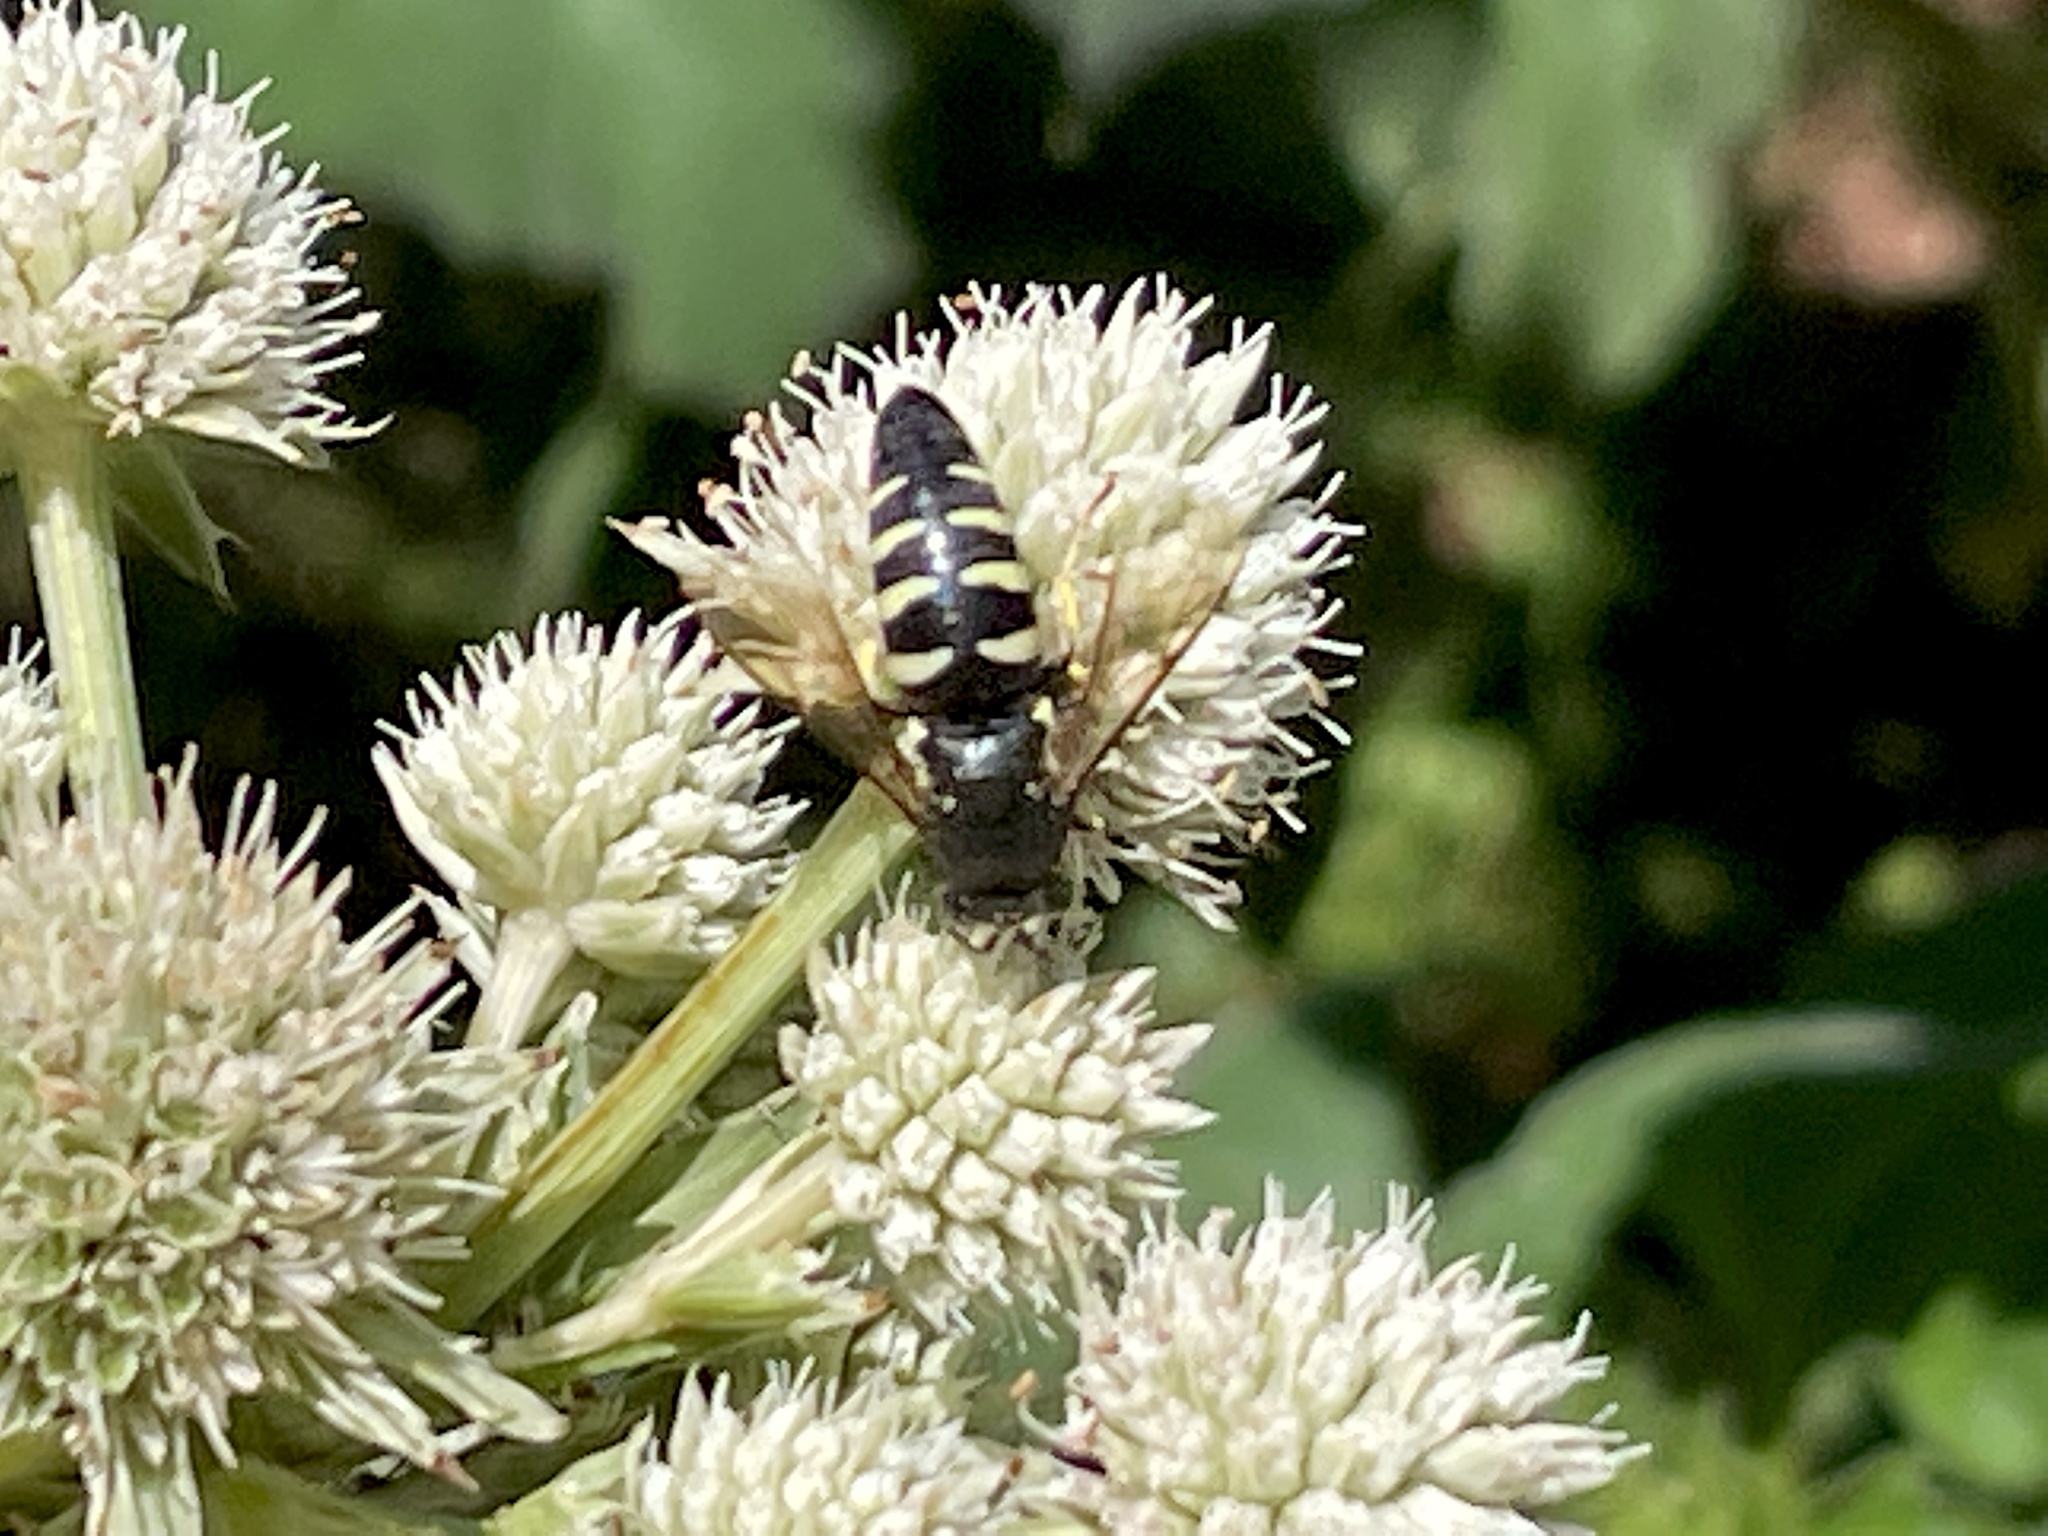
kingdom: Animalia
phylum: Arthropoda
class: Insecta
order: Hymenoptera
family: Crabronidae
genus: Bicyrtes
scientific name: Bicyrtes quadrifasciatus
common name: Four-banded stink bug hunter wasp
